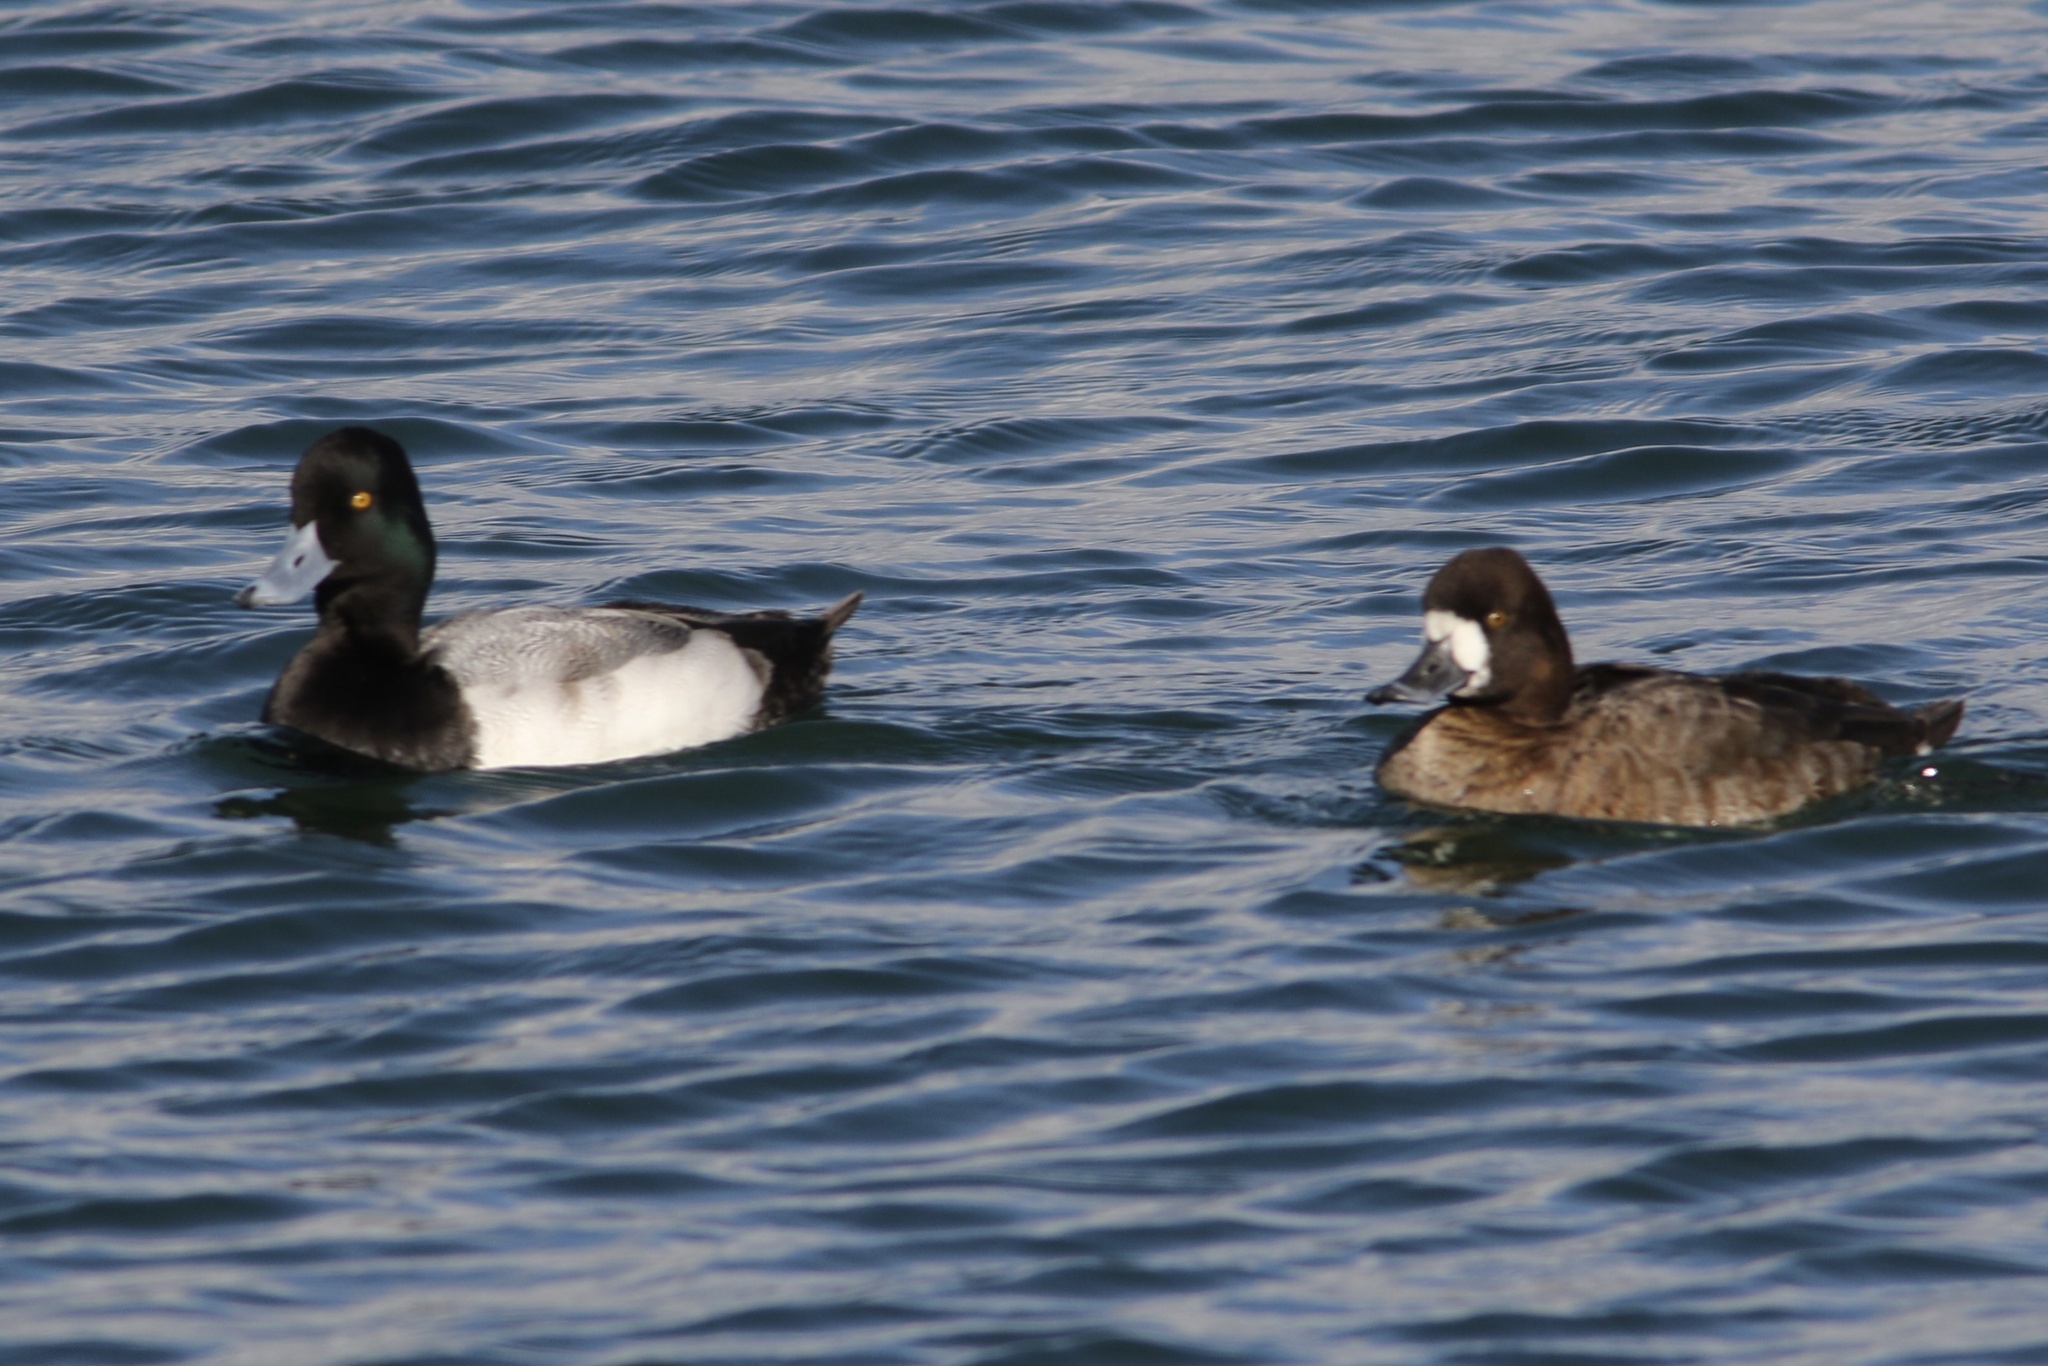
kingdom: Animalia
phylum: Chordata
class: Aves
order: Anseriformes
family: Anatidae
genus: Aythya
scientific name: Aythya affinis
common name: Lesser scaup
